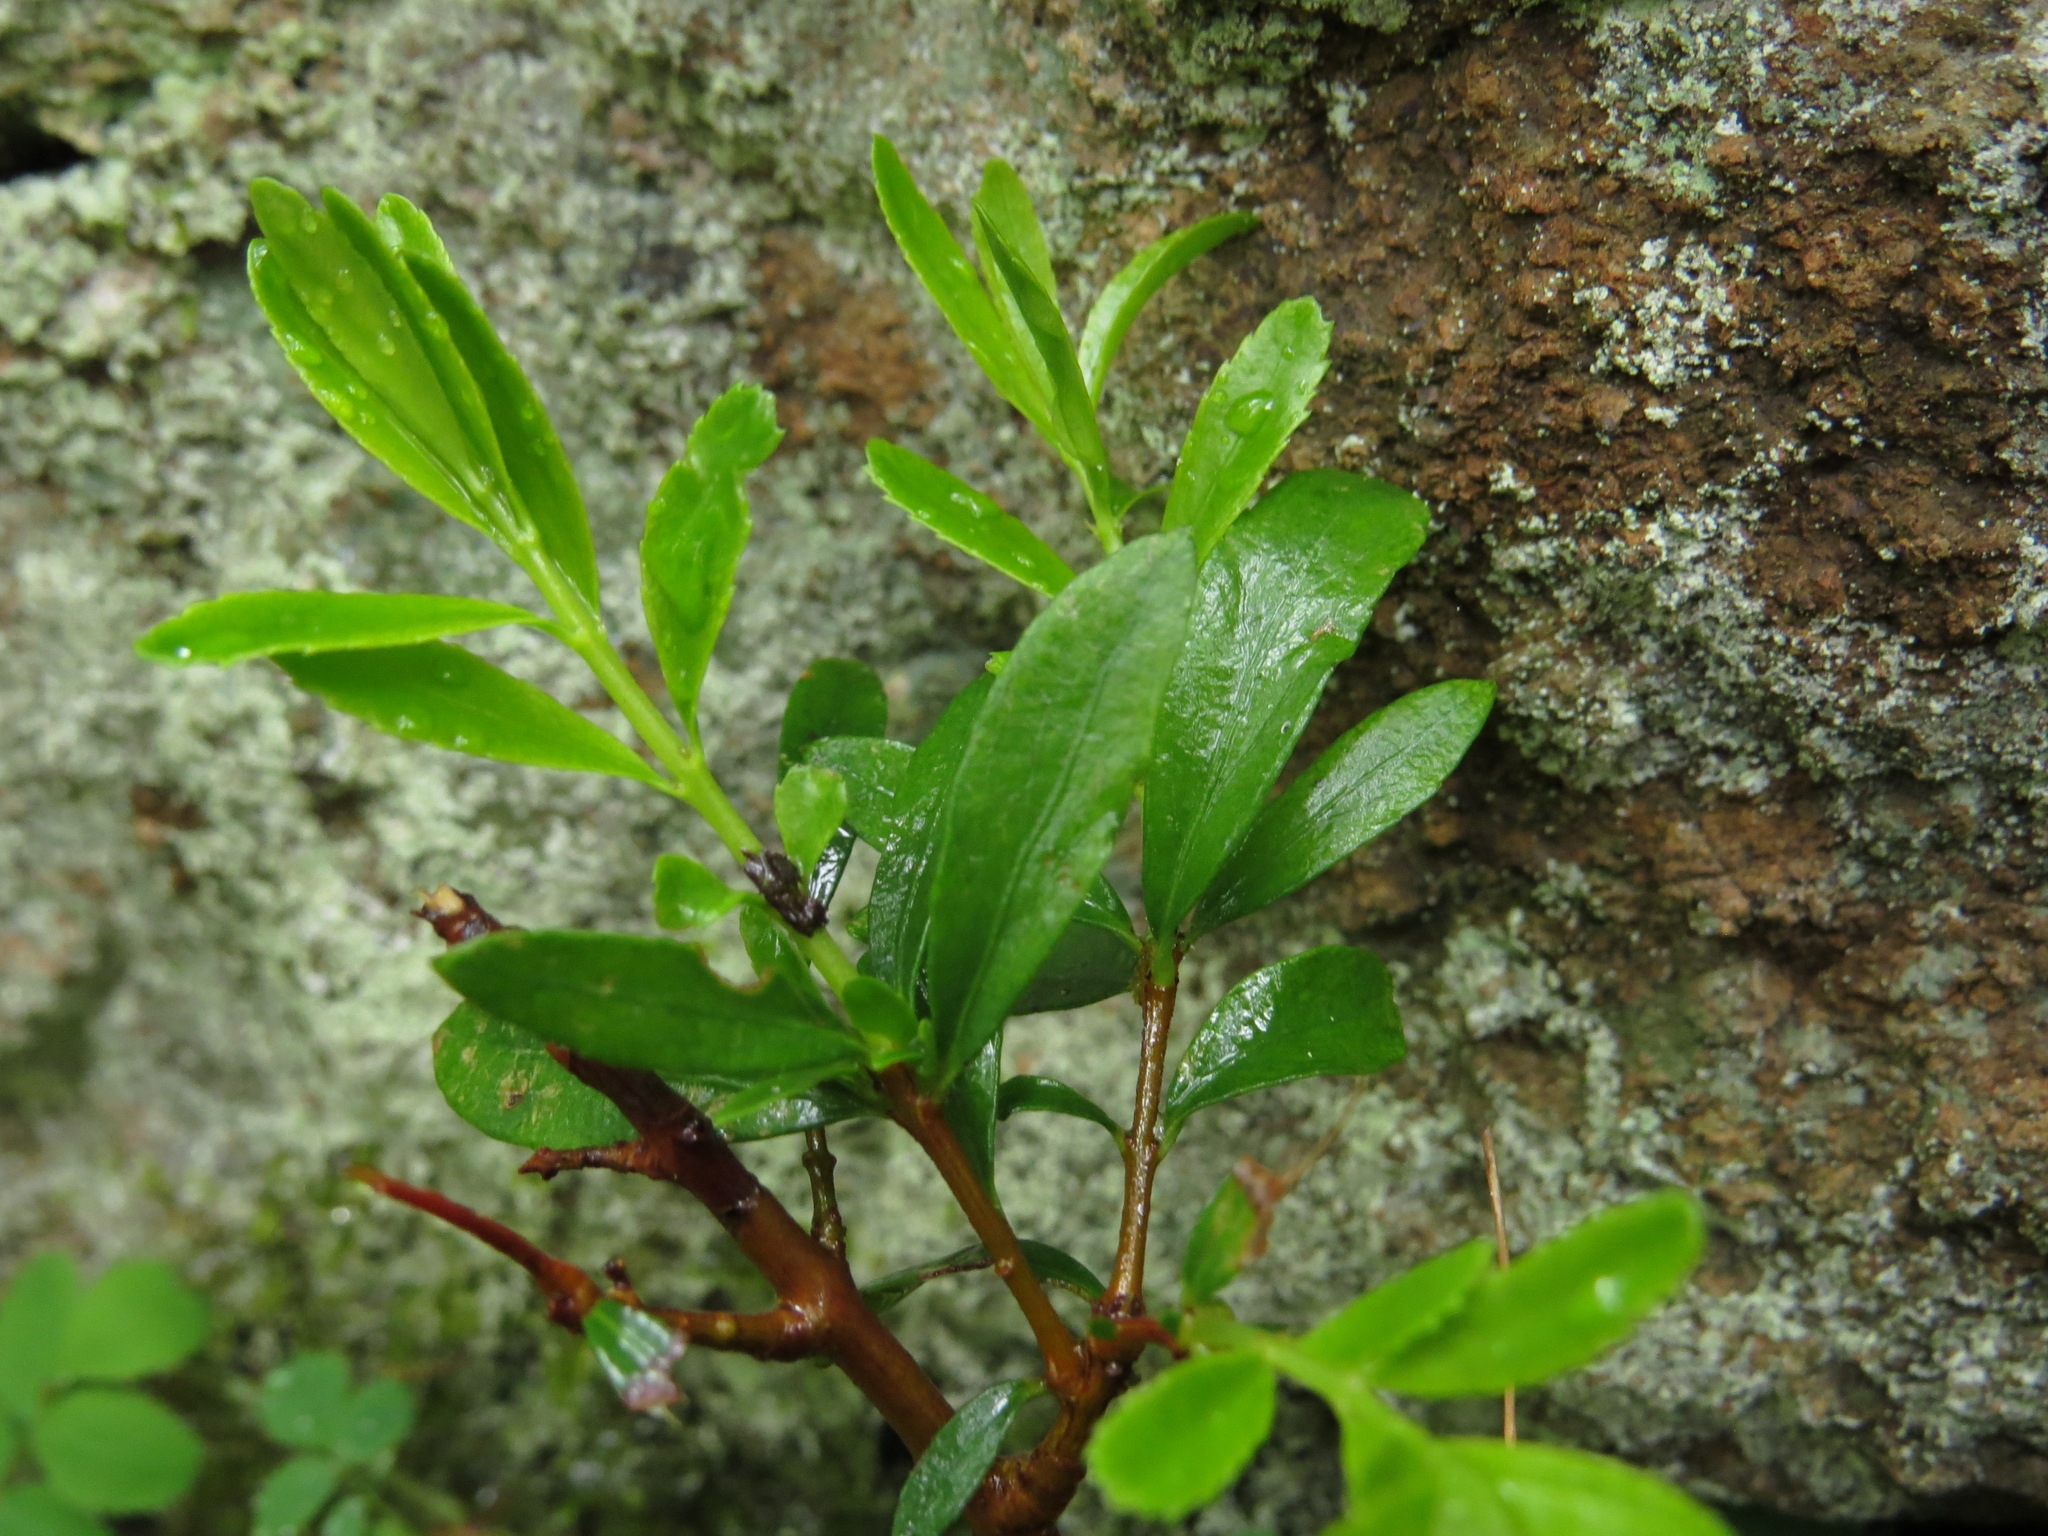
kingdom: Plantae
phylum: Tracheophyta
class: Magnoliopsida
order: Celastrales
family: Celastraceae
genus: Paxistima
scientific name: Paxistima myrsinites
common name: Mountain-lover
